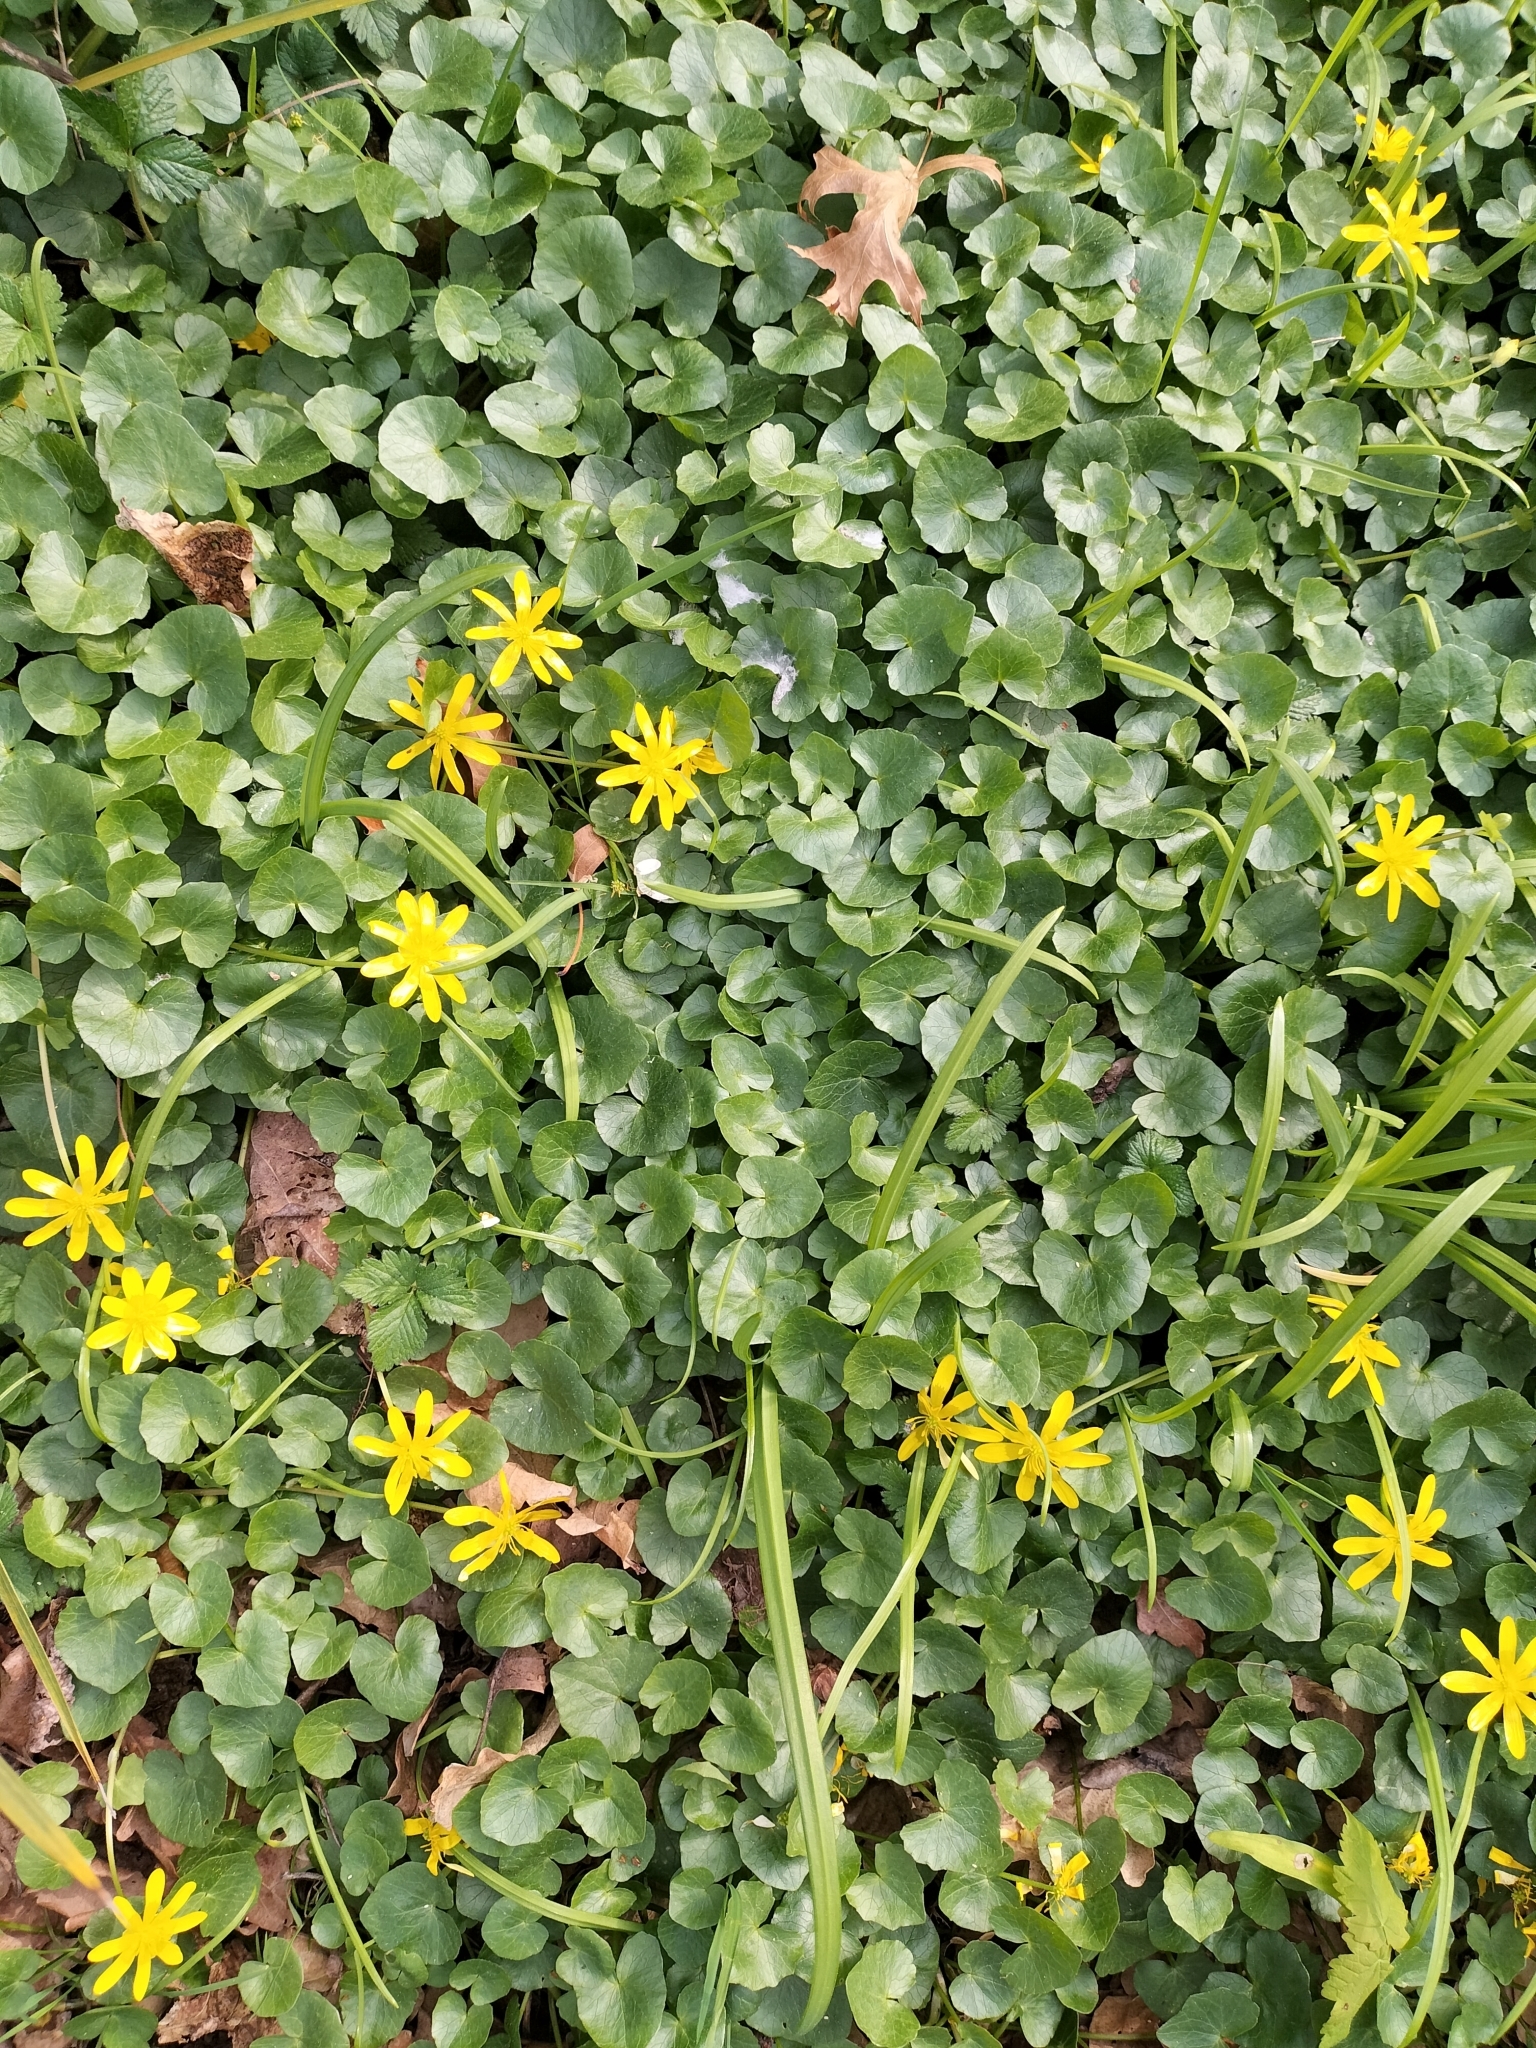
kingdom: Plantae
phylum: Tracheophyta
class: Magnoliopsida
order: Ranunculales
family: Ranunculaceae
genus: Ficaria
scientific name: Ficaria verna
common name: Lesser celandine
